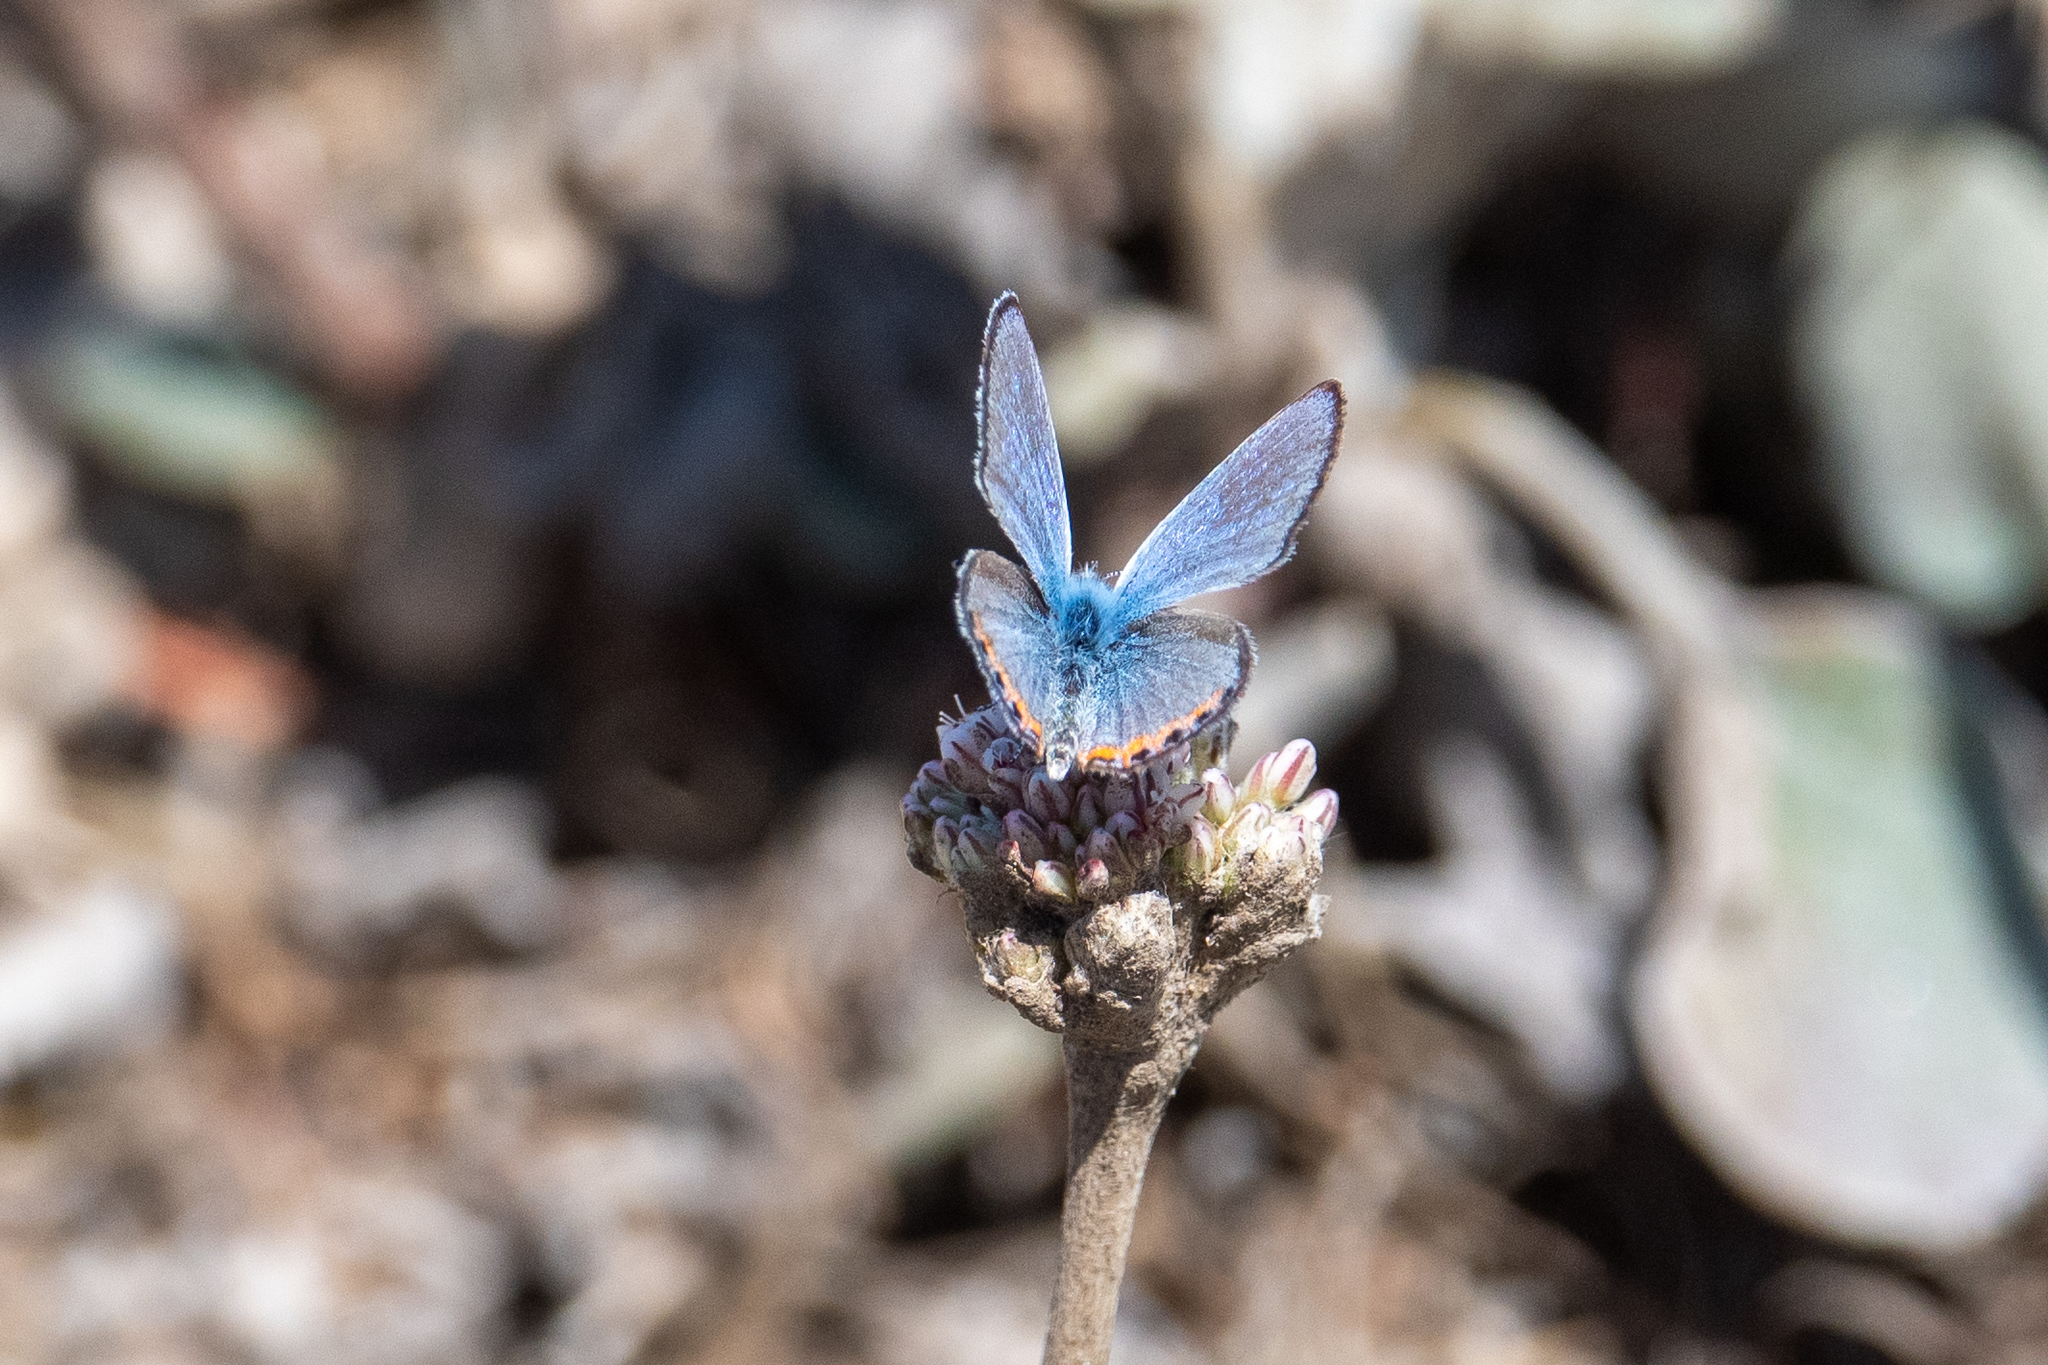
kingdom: Animalia
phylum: Arthropoda
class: Insecta
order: Lepidoptera
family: Lycaenidae
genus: Icaricia
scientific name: Icaricia acmon
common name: Acmon blue
